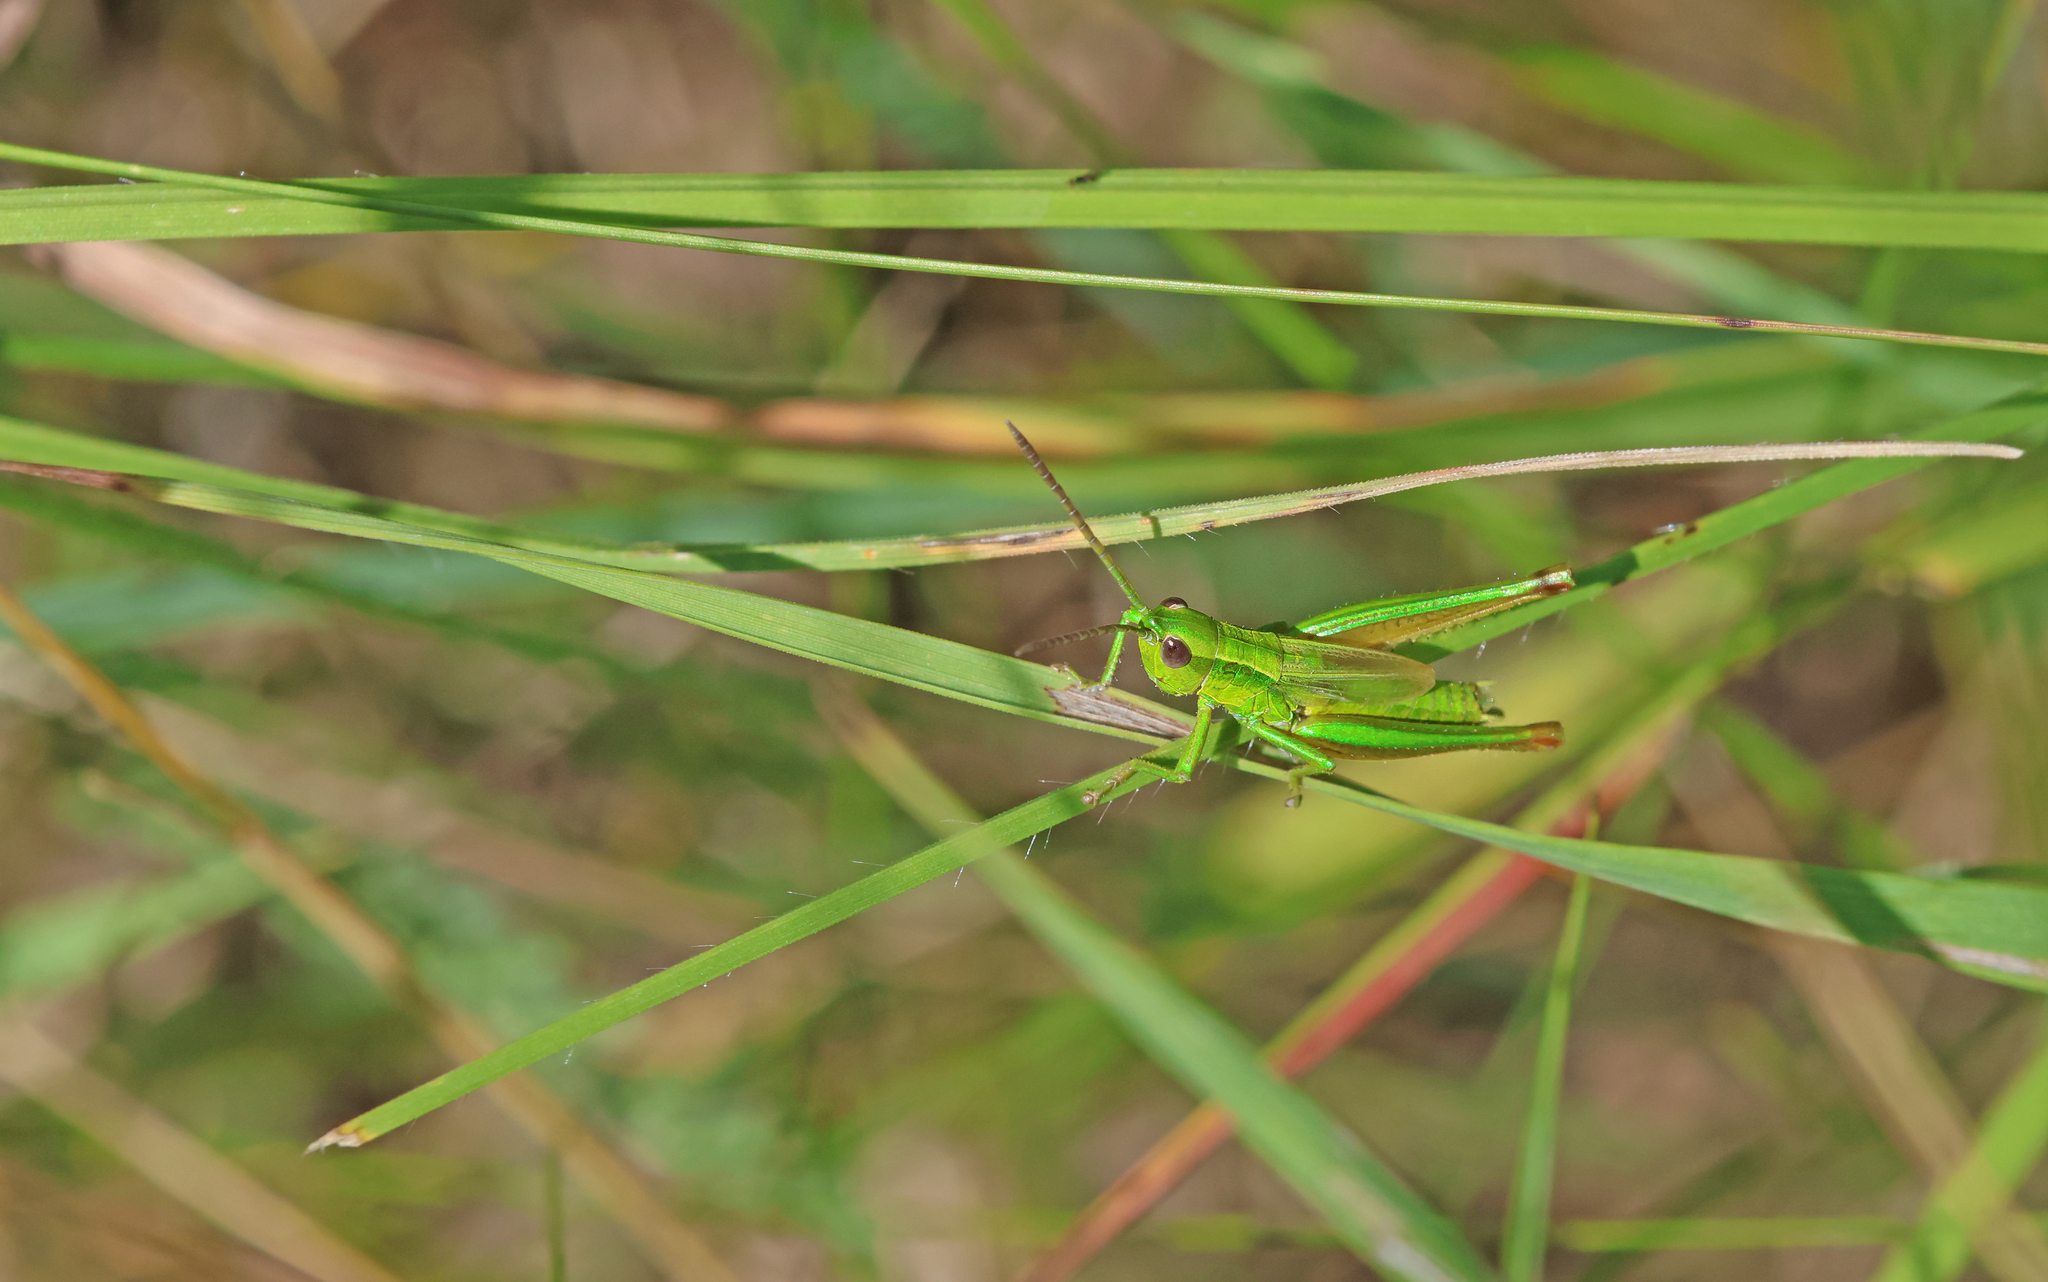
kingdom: Animalia
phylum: Arthropoda
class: Insecta
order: Orthoptera
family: Acrididae
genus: Euthystira
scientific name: Euthystira brachyptera
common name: Small gold grasshopper
